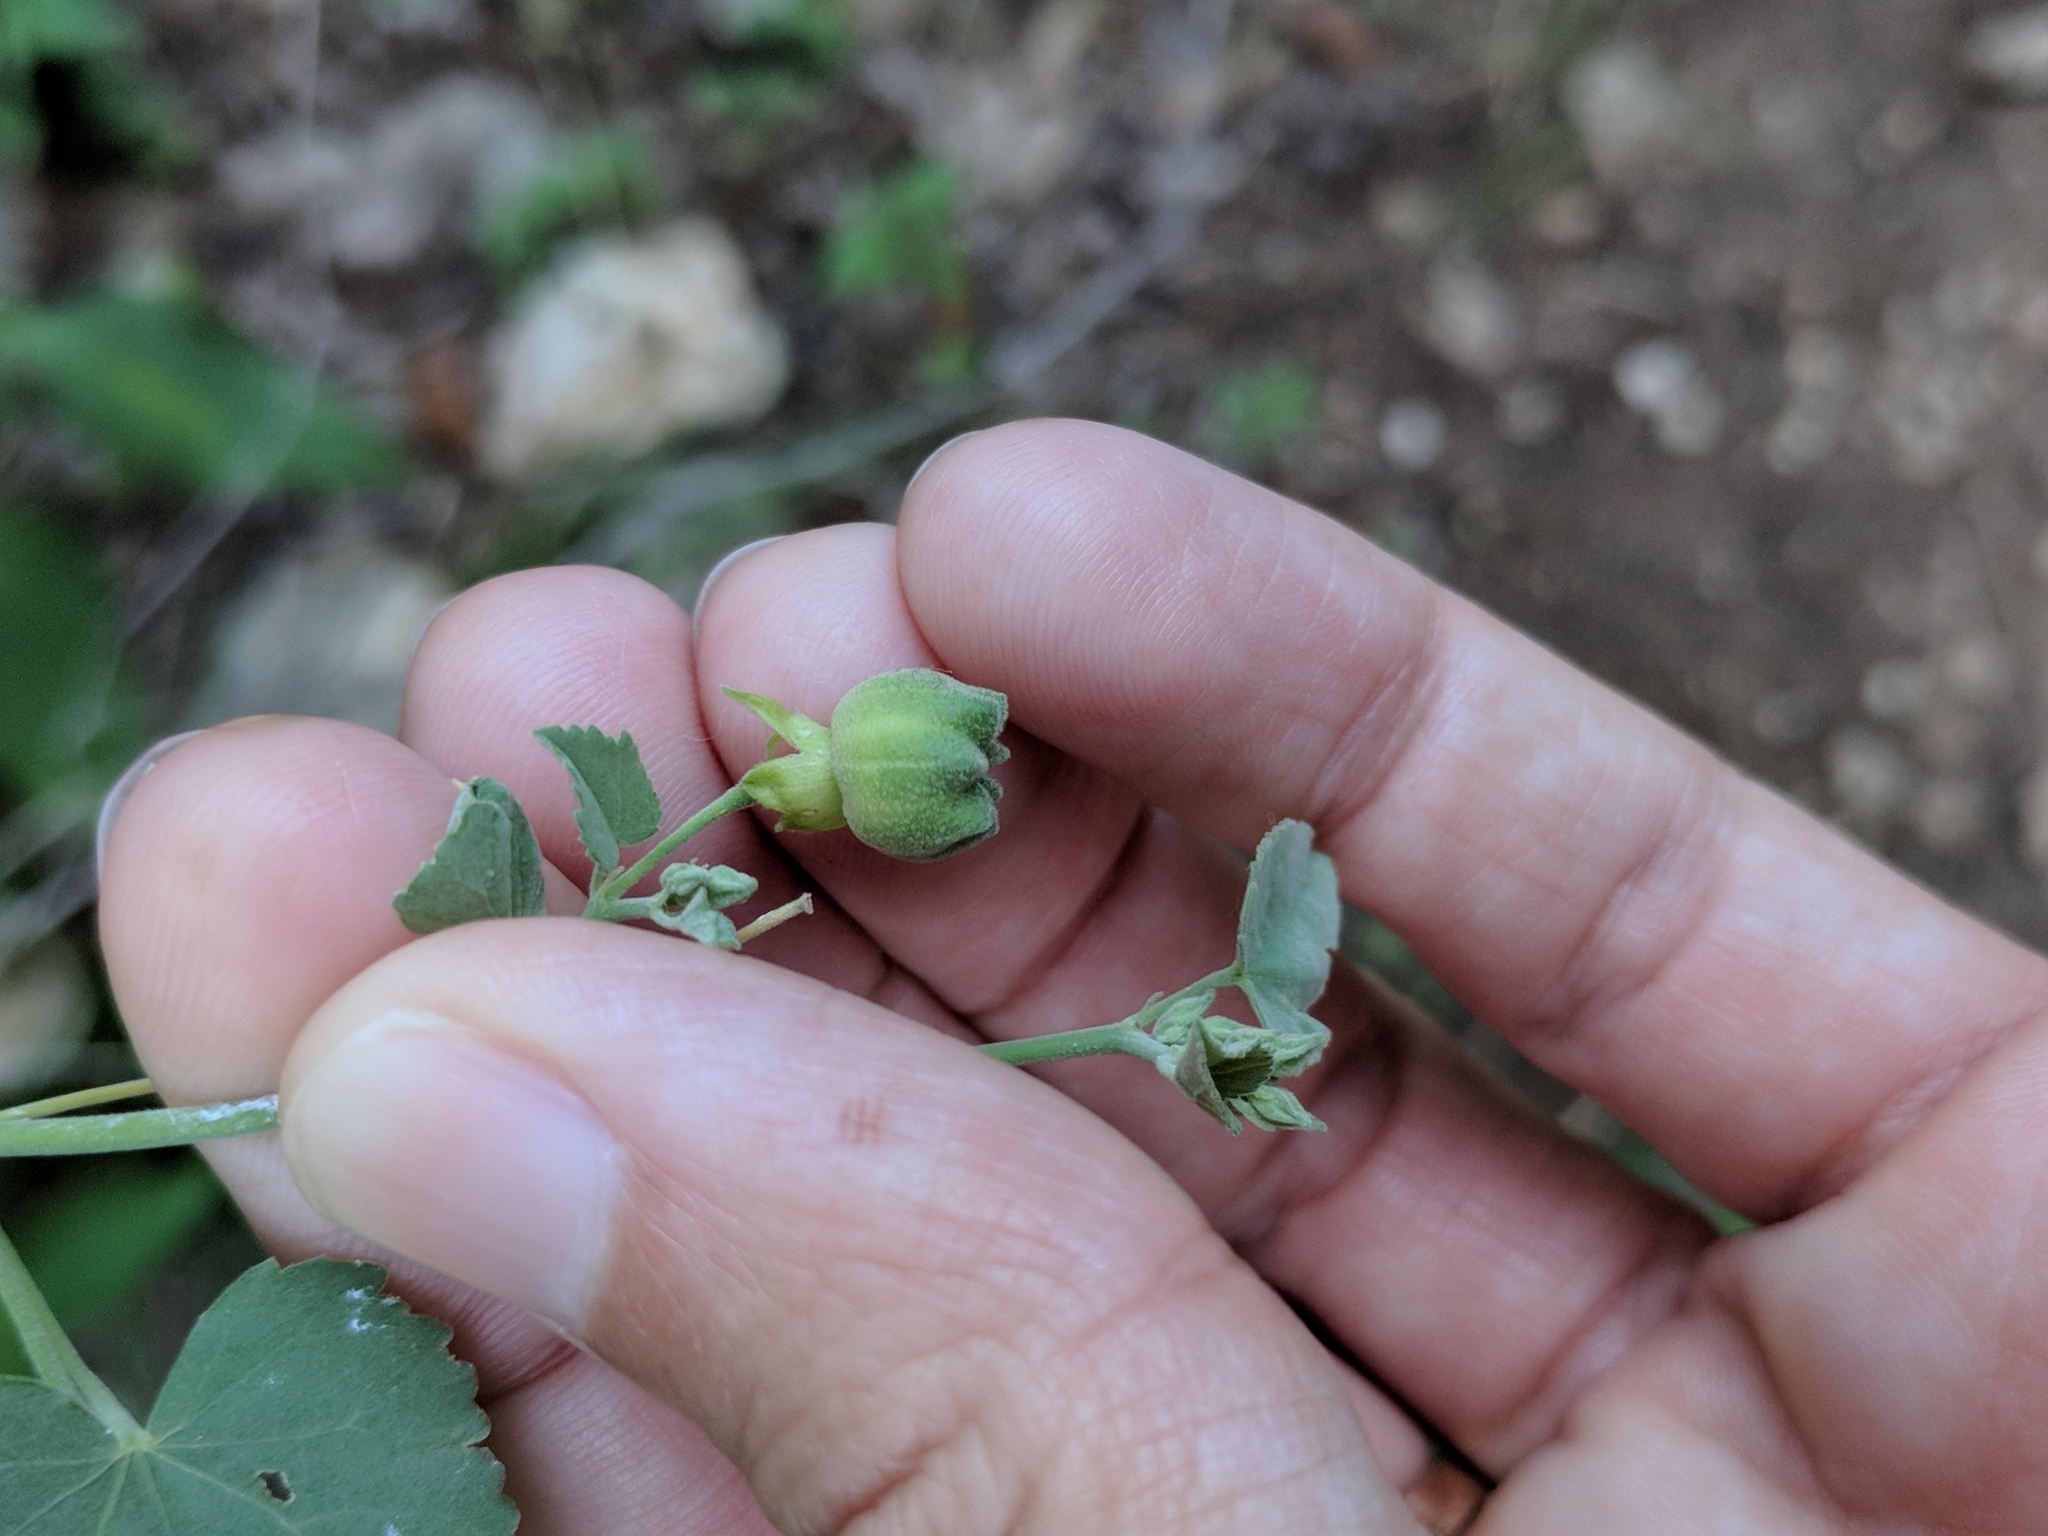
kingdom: Plantae
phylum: Tracheophyta
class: Magnoliopsida
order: Malvales
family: Malvaceae
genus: Abutilon
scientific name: Abutilon fruticosum
